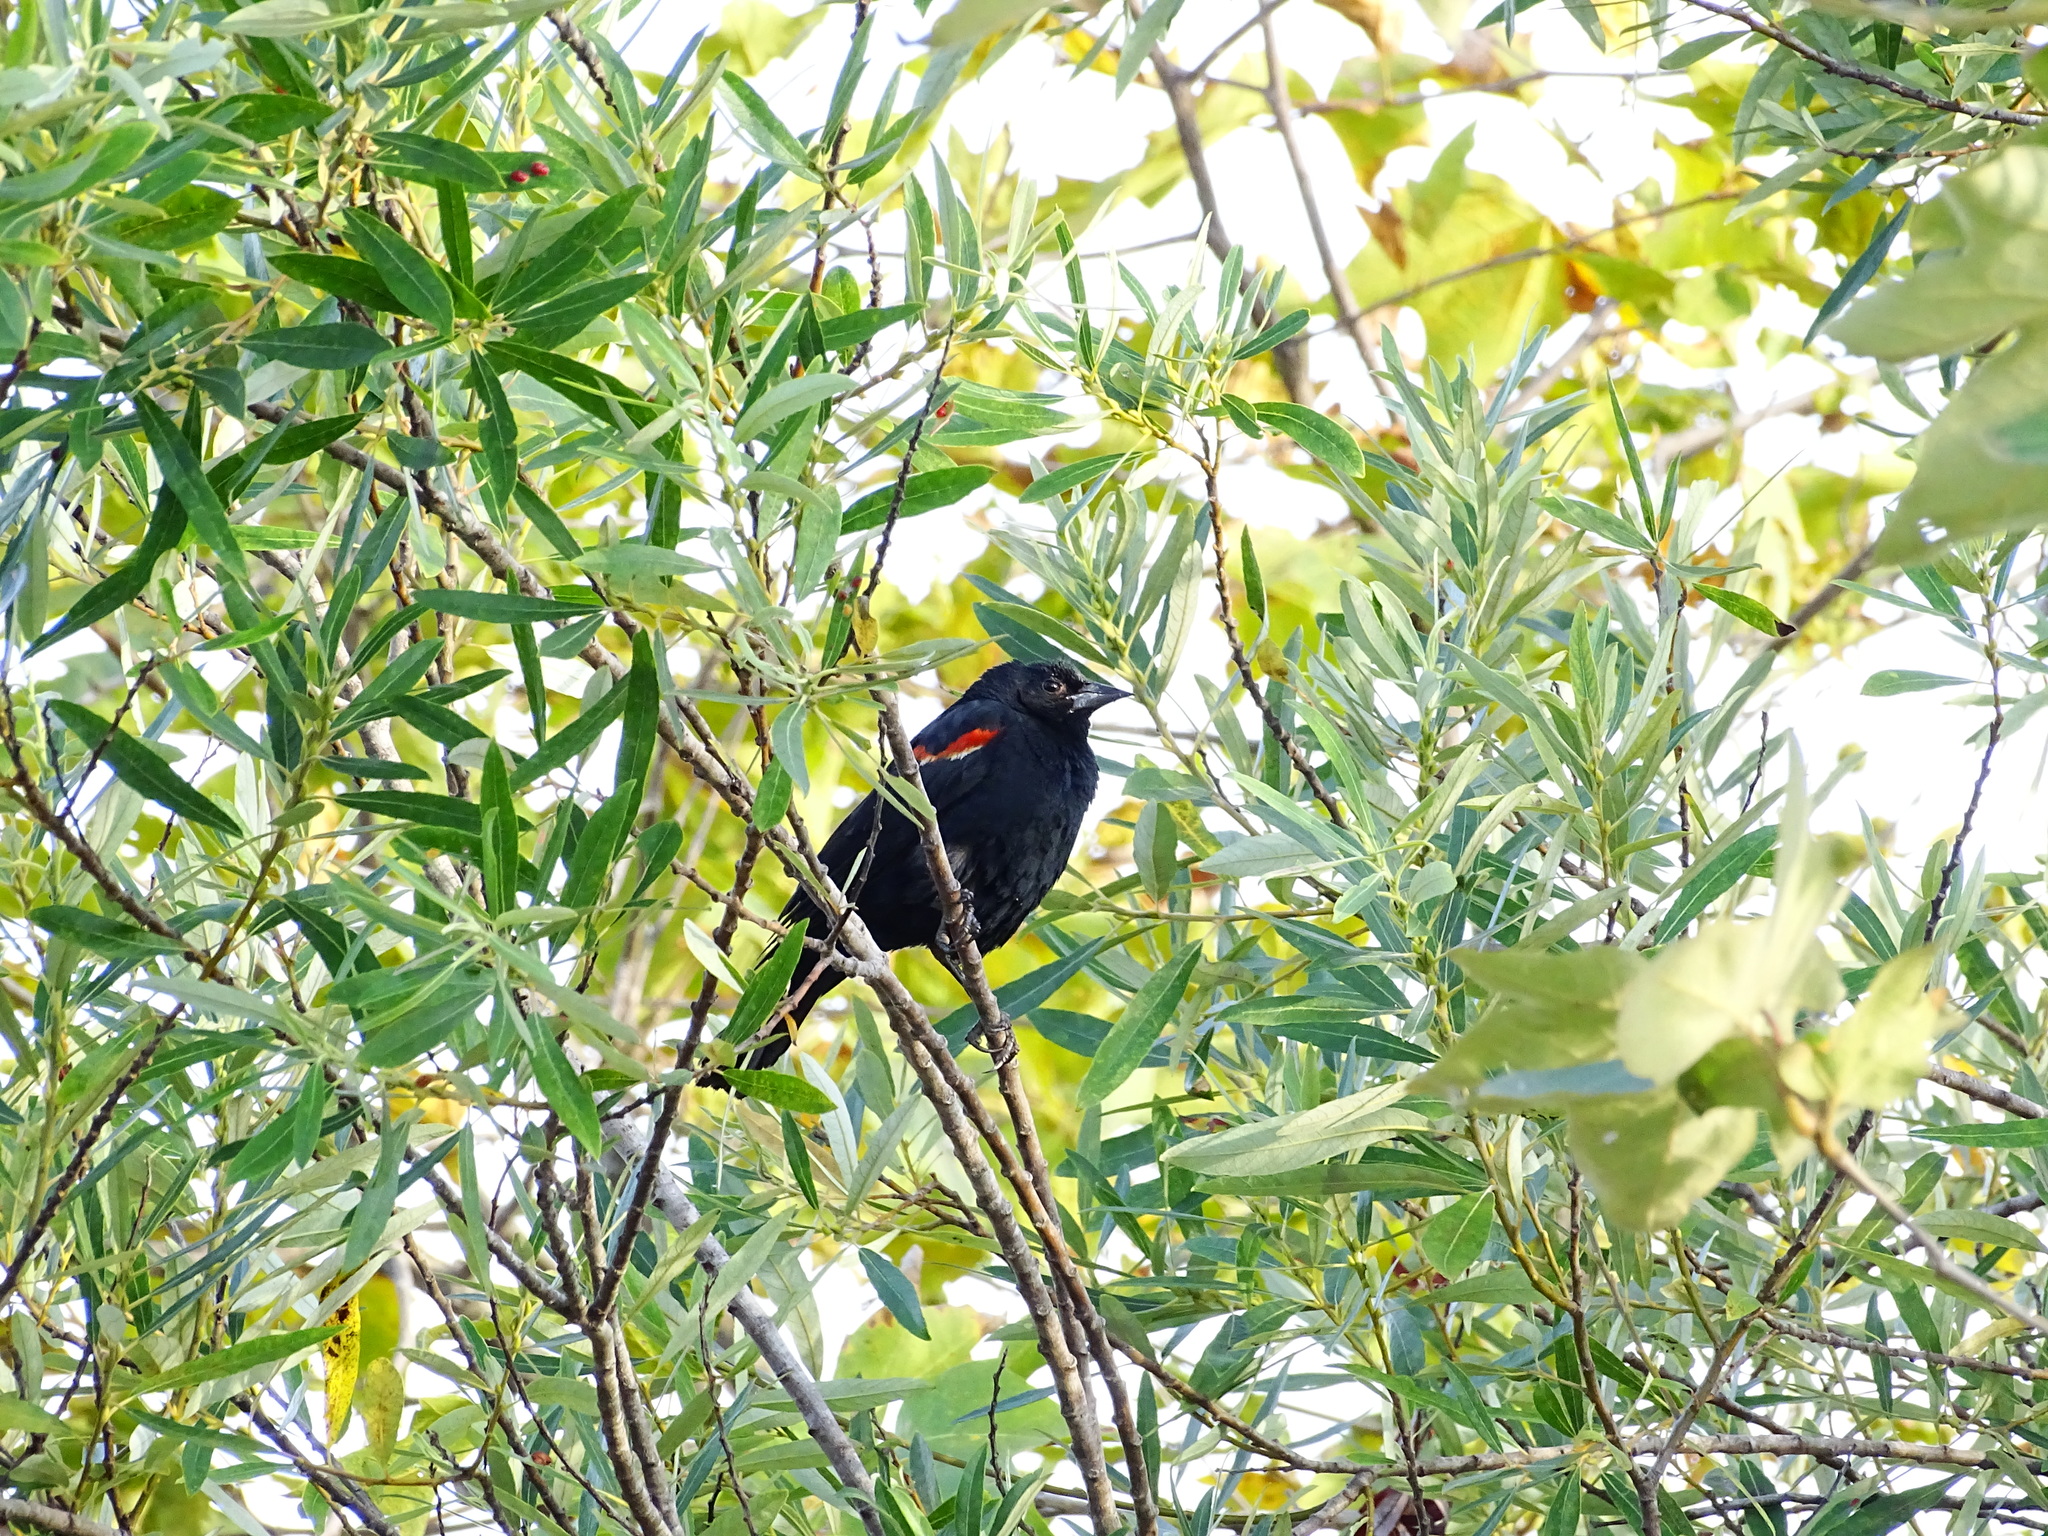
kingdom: Animalia
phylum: Chordata
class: Aves
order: Passeriformes
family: Icteridae
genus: Agelaius
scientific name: Agelaius phoeniceus
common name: Red-winged blackbird
